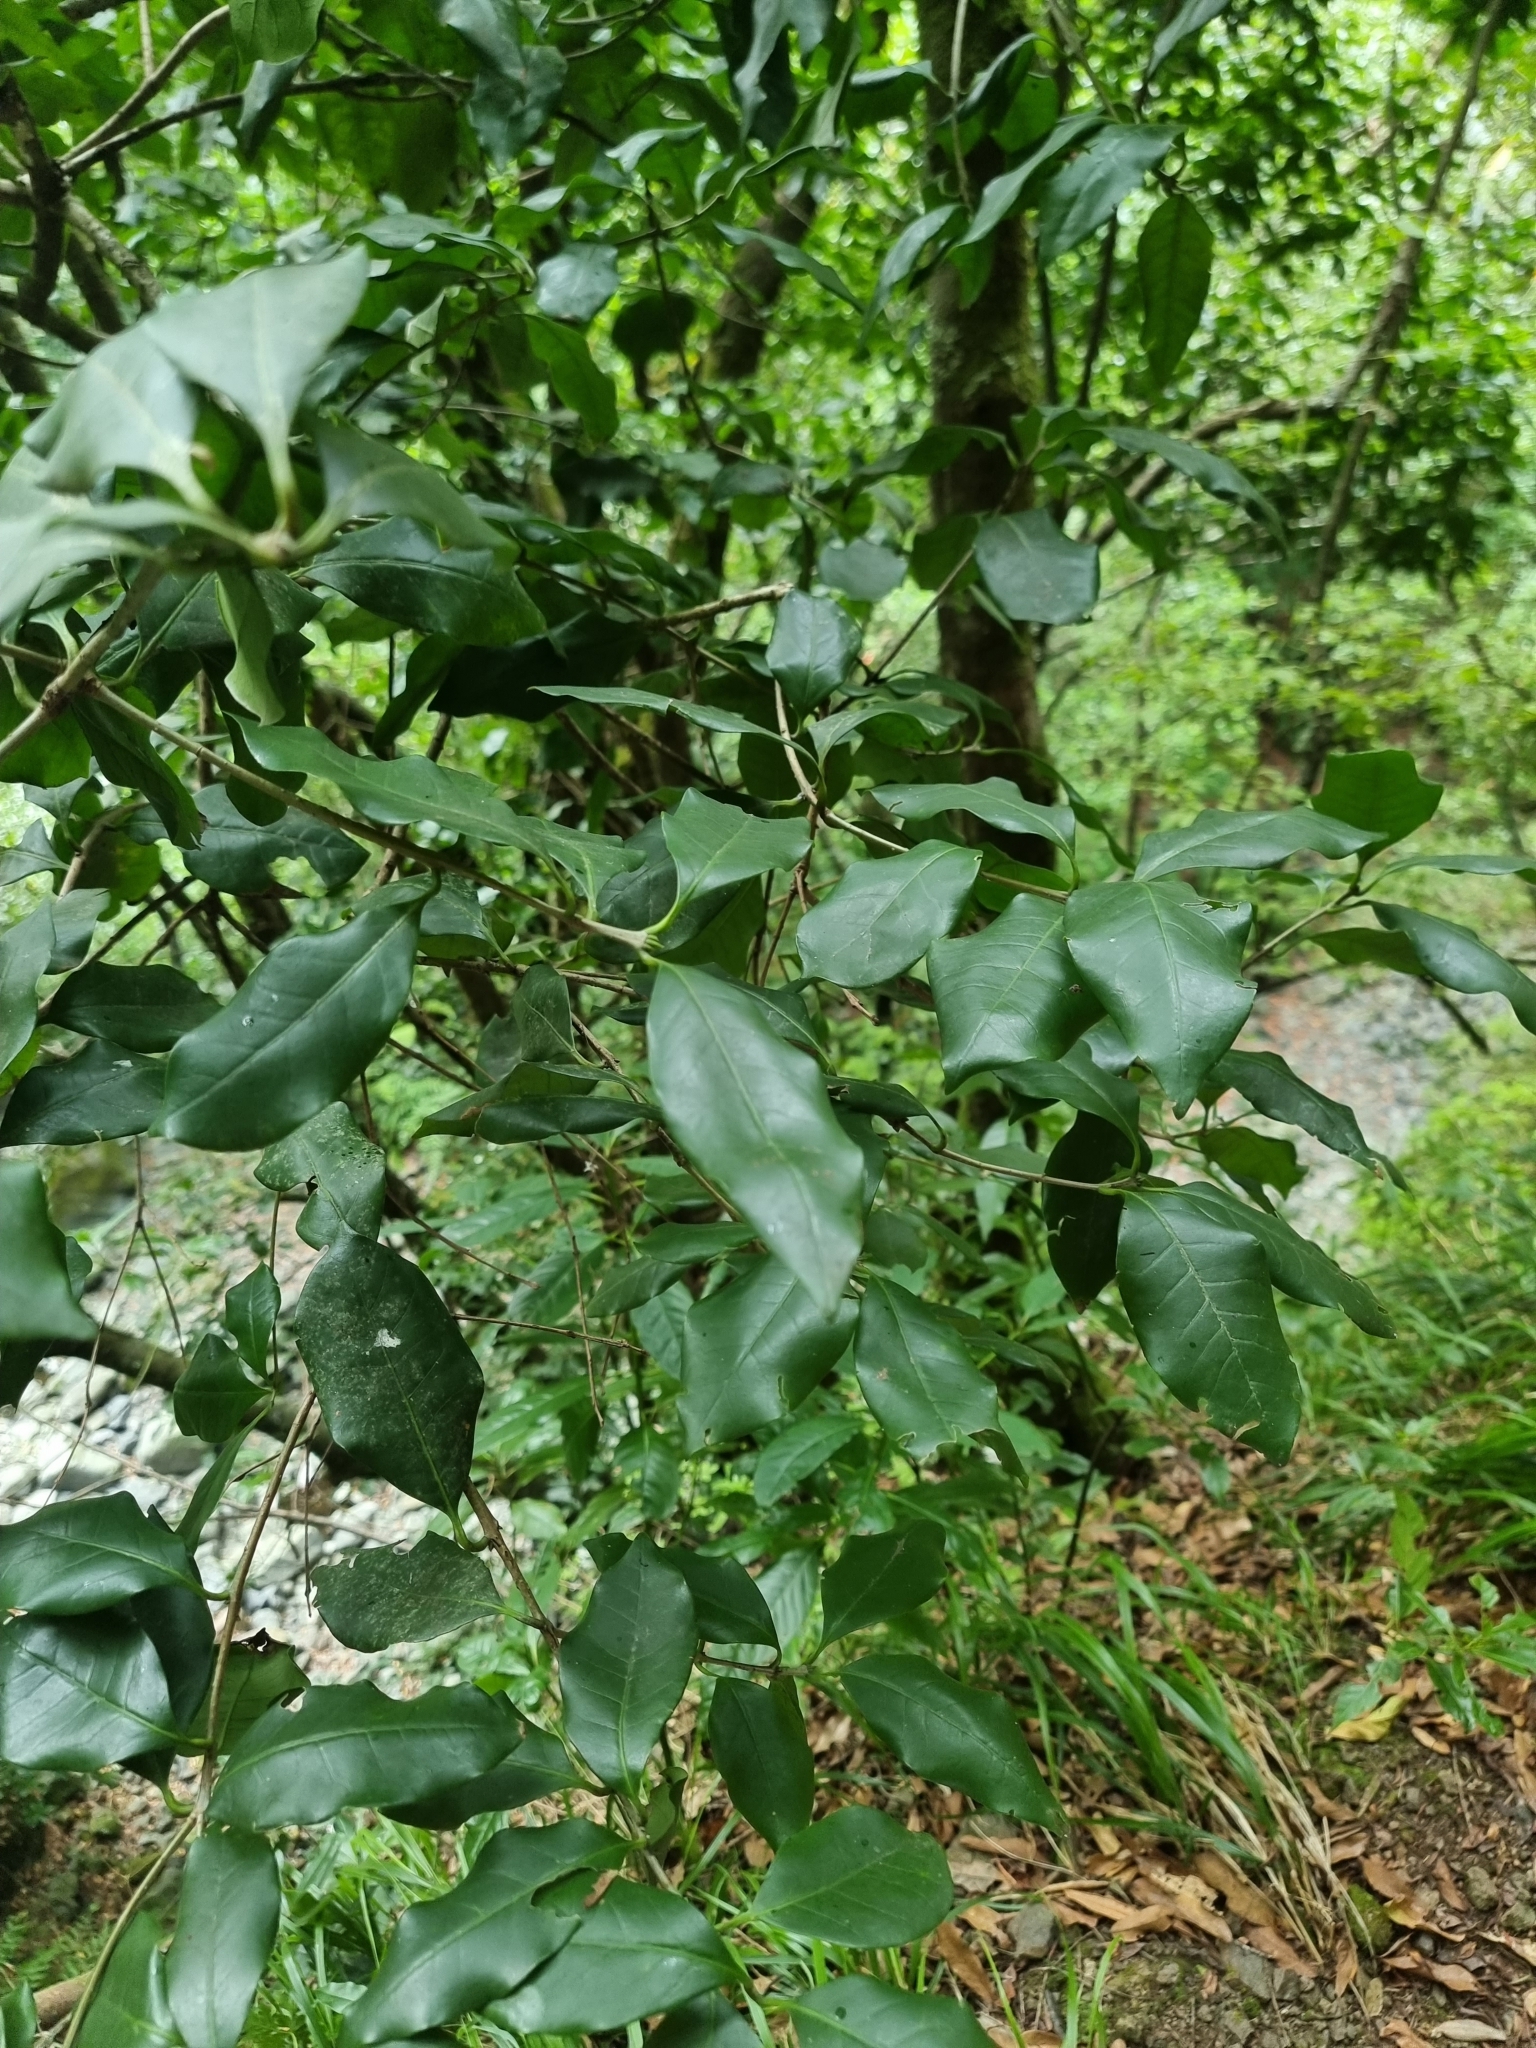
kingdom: Plantae
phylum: Tracheophyta
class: Magnoliopsida
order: Lamiales
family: Oleaceae
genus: Picconia
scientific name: Picconia excelsa
